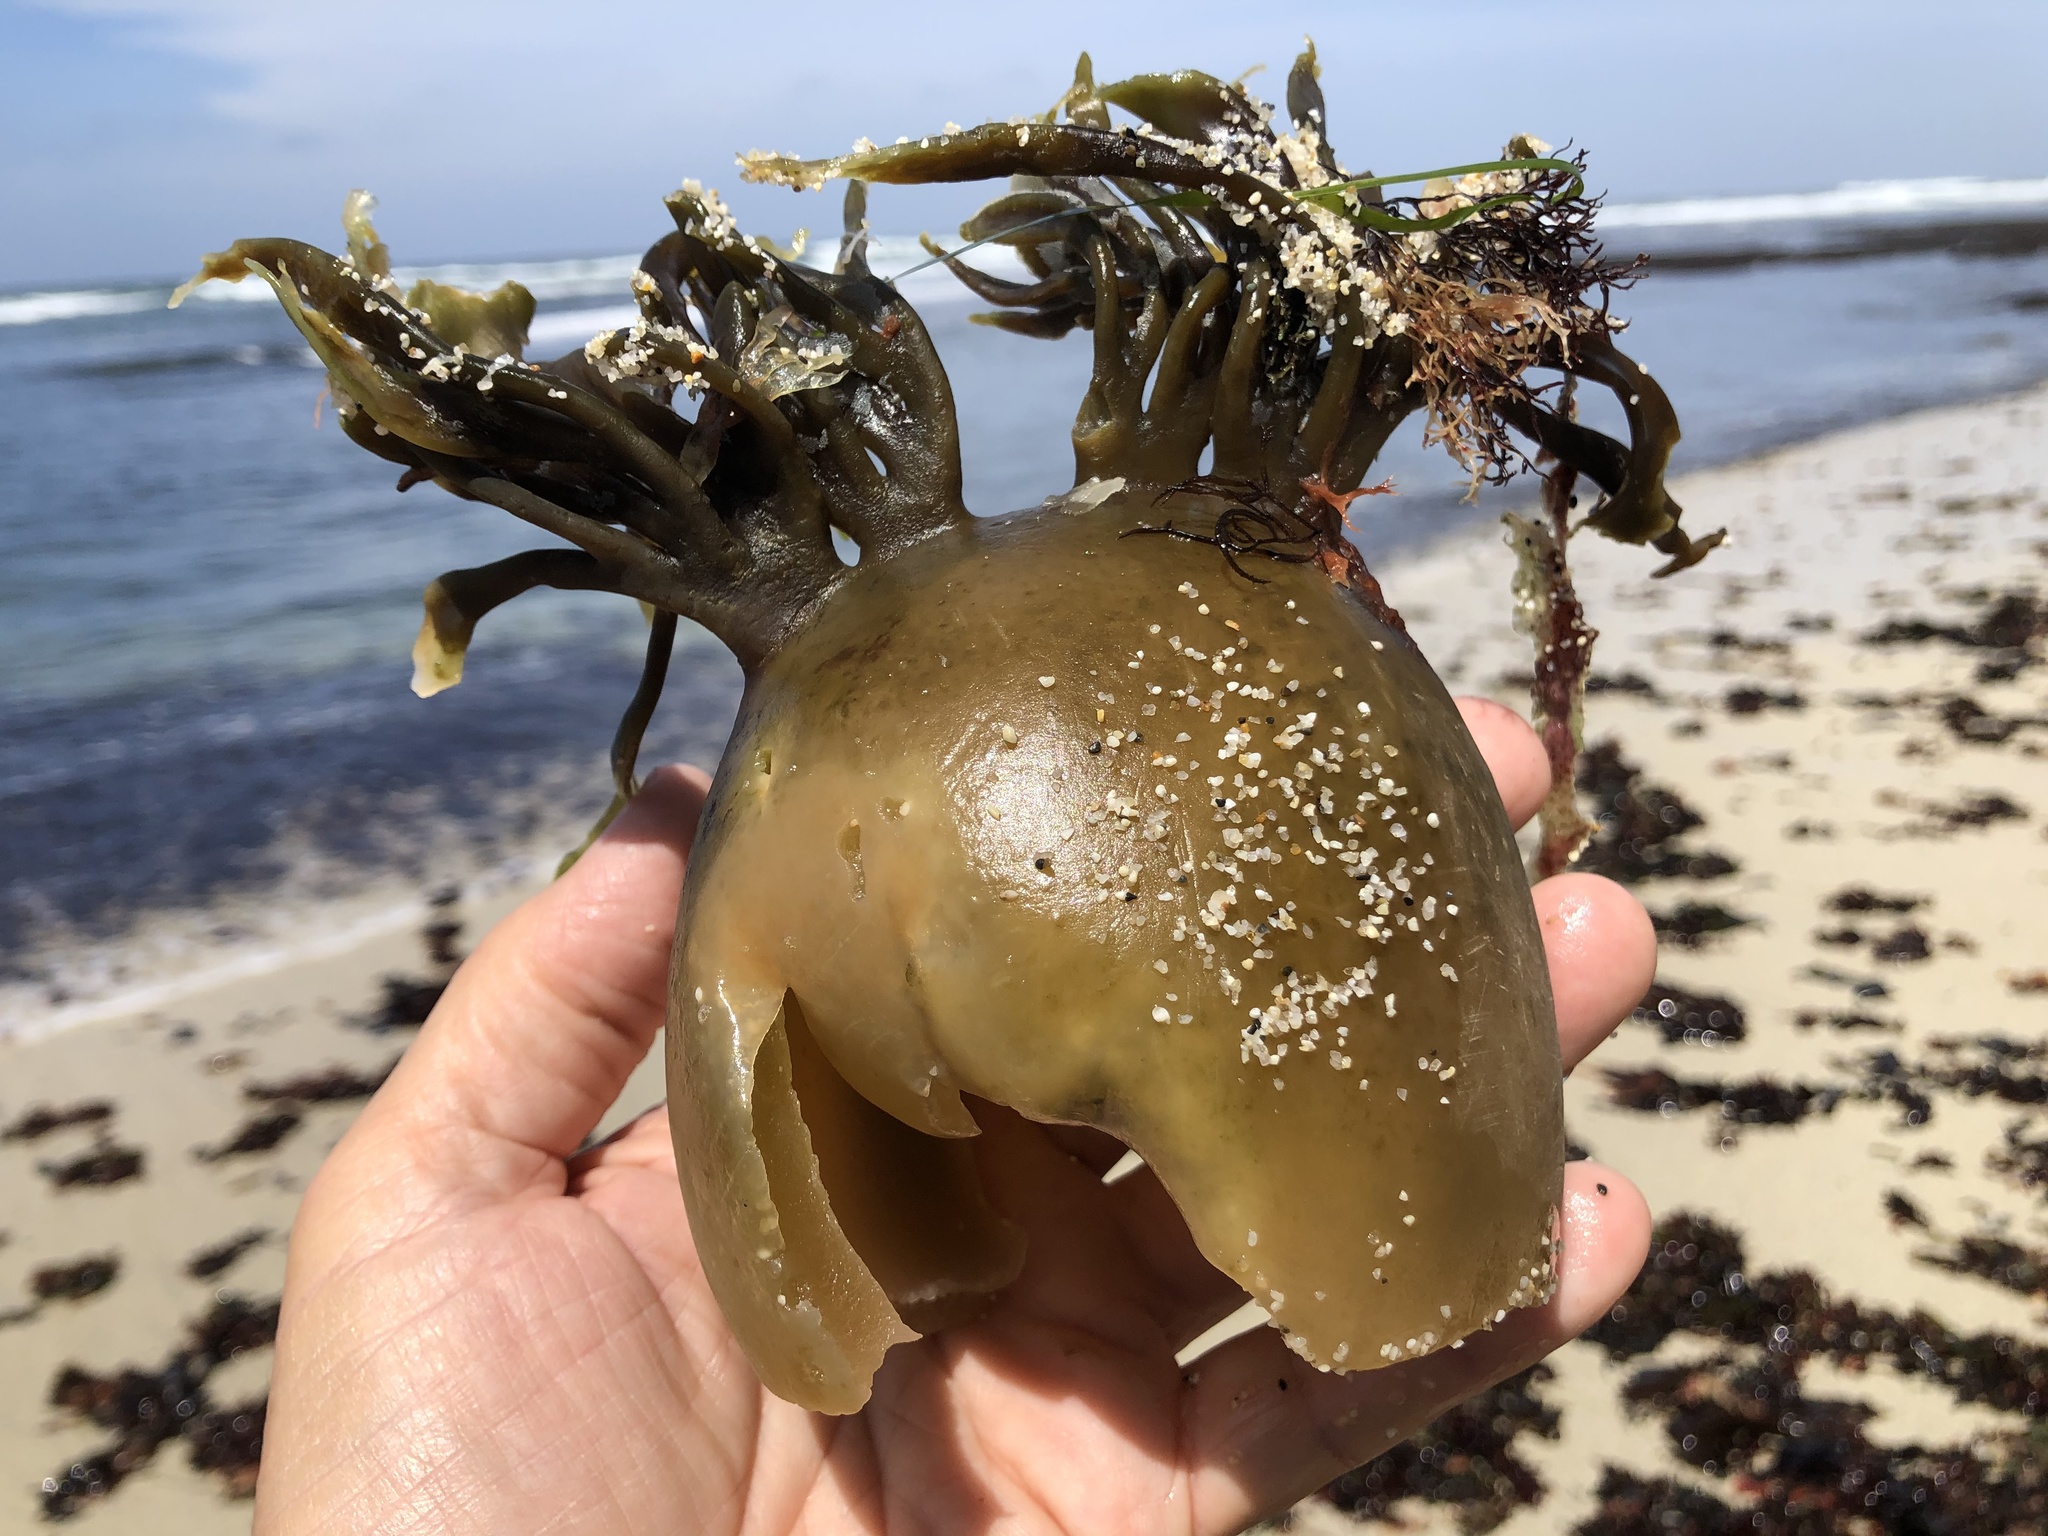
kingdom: Chromista
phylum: Ochrophyta
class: Phaeophyceae
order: Laminariales
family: Laminariaceae
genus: Nereocystis
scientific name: Nereocystis luetkeana
